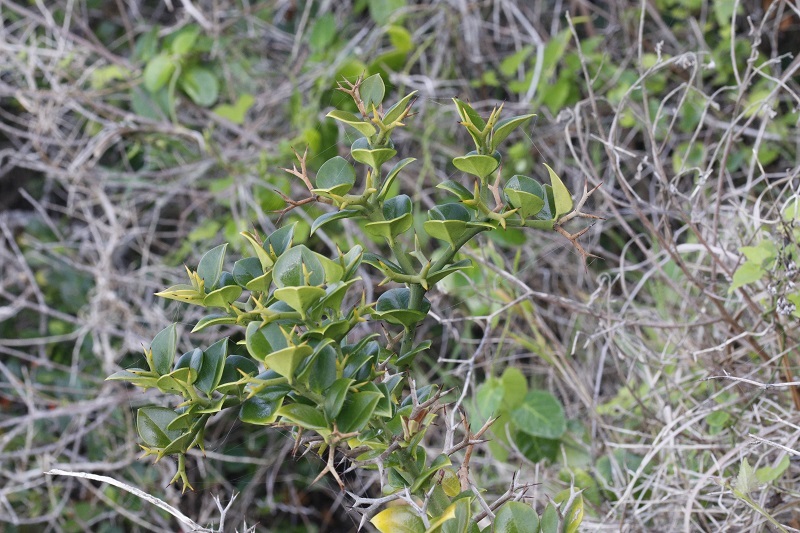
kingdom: Plantae
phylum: Tracheophyta
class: Magnoliopsida
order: Gentianales
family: Apocynaceae
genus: Carissa
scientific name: Carissa bispinosa
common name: Forest num-num
